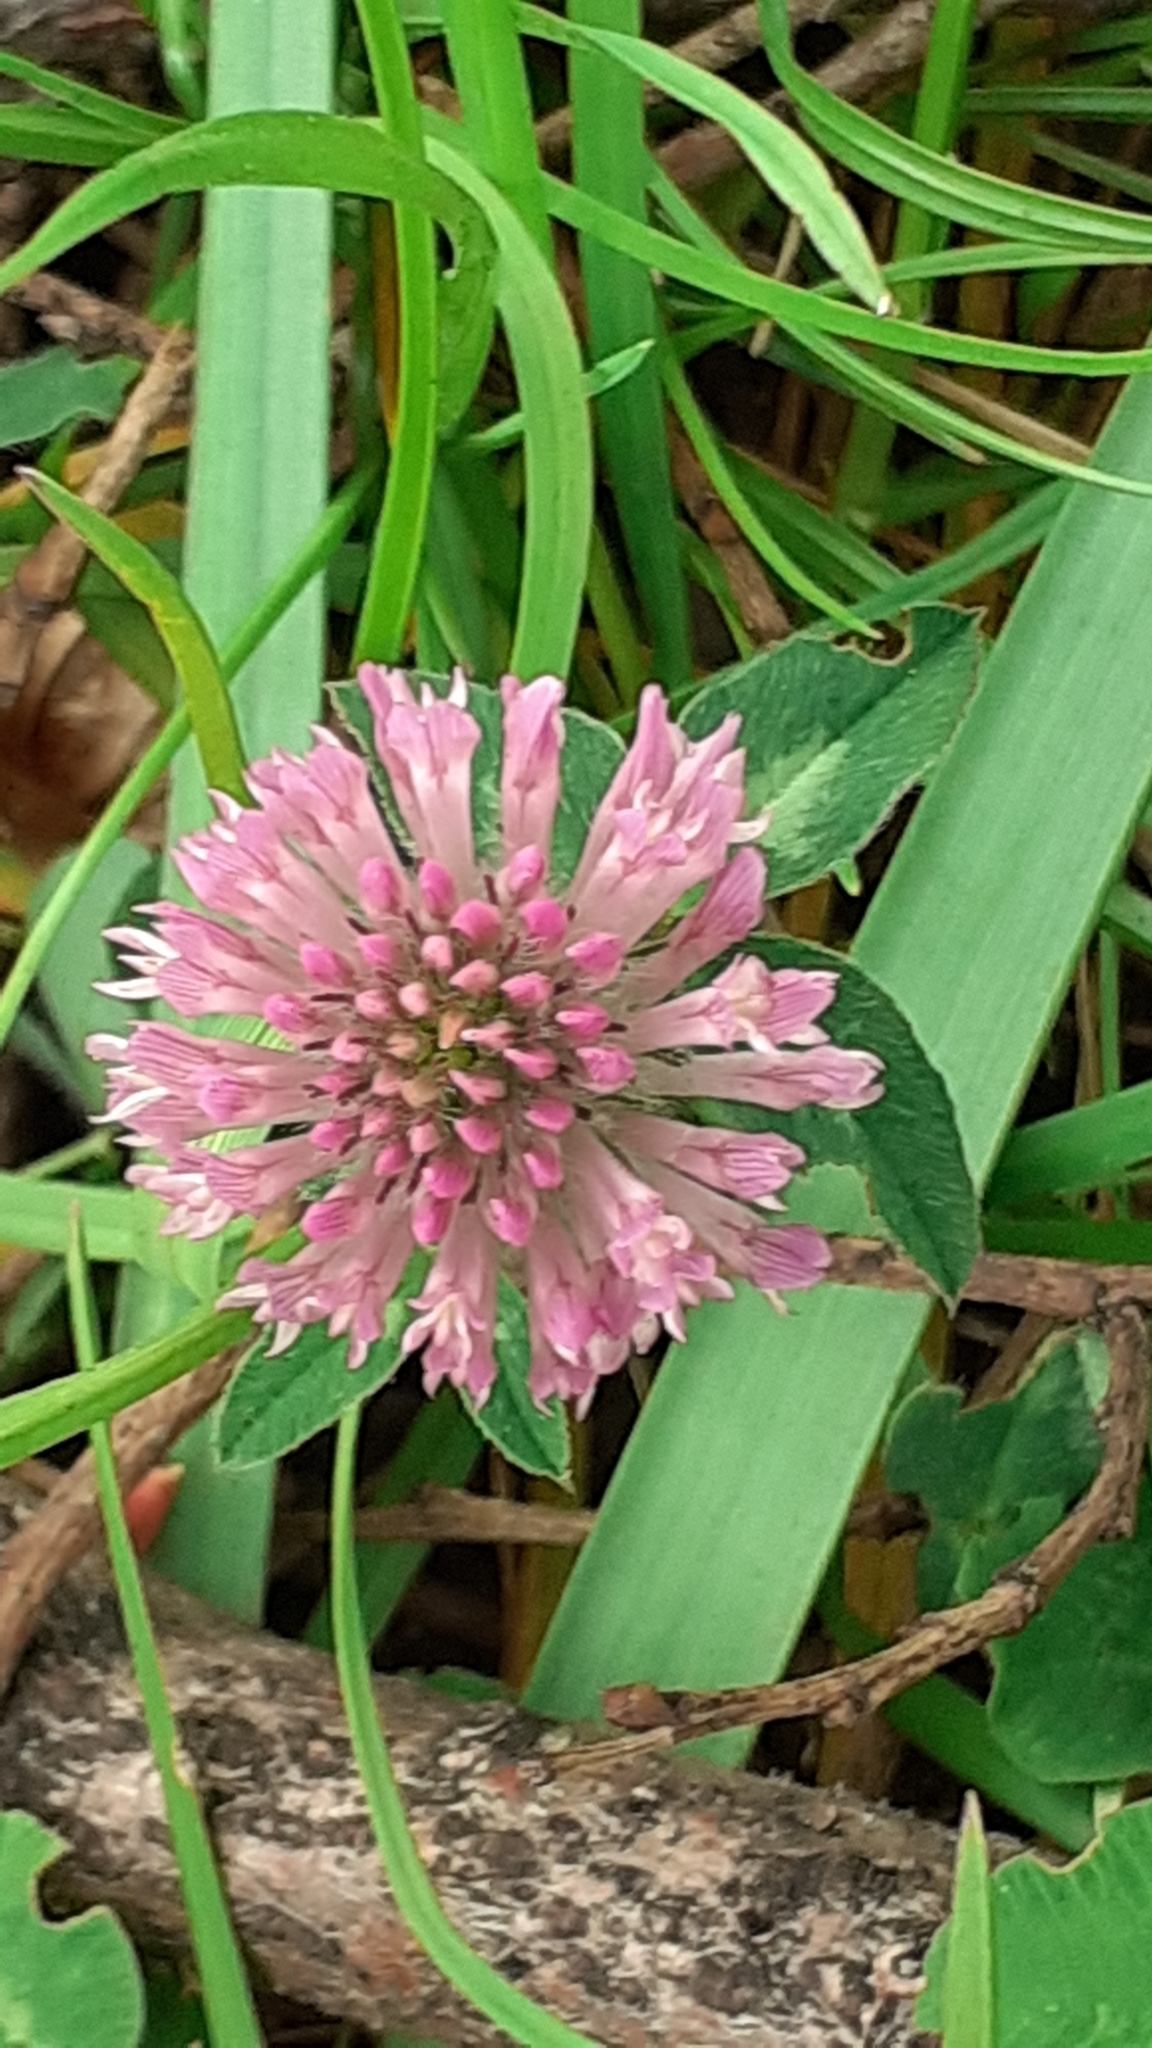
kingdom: Plantae
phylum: Tracheophyta
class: Magnoliopsida
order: Fabales
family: Fabaceae
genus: Trifolium
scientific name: Trifolium pratense
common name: Red clover
